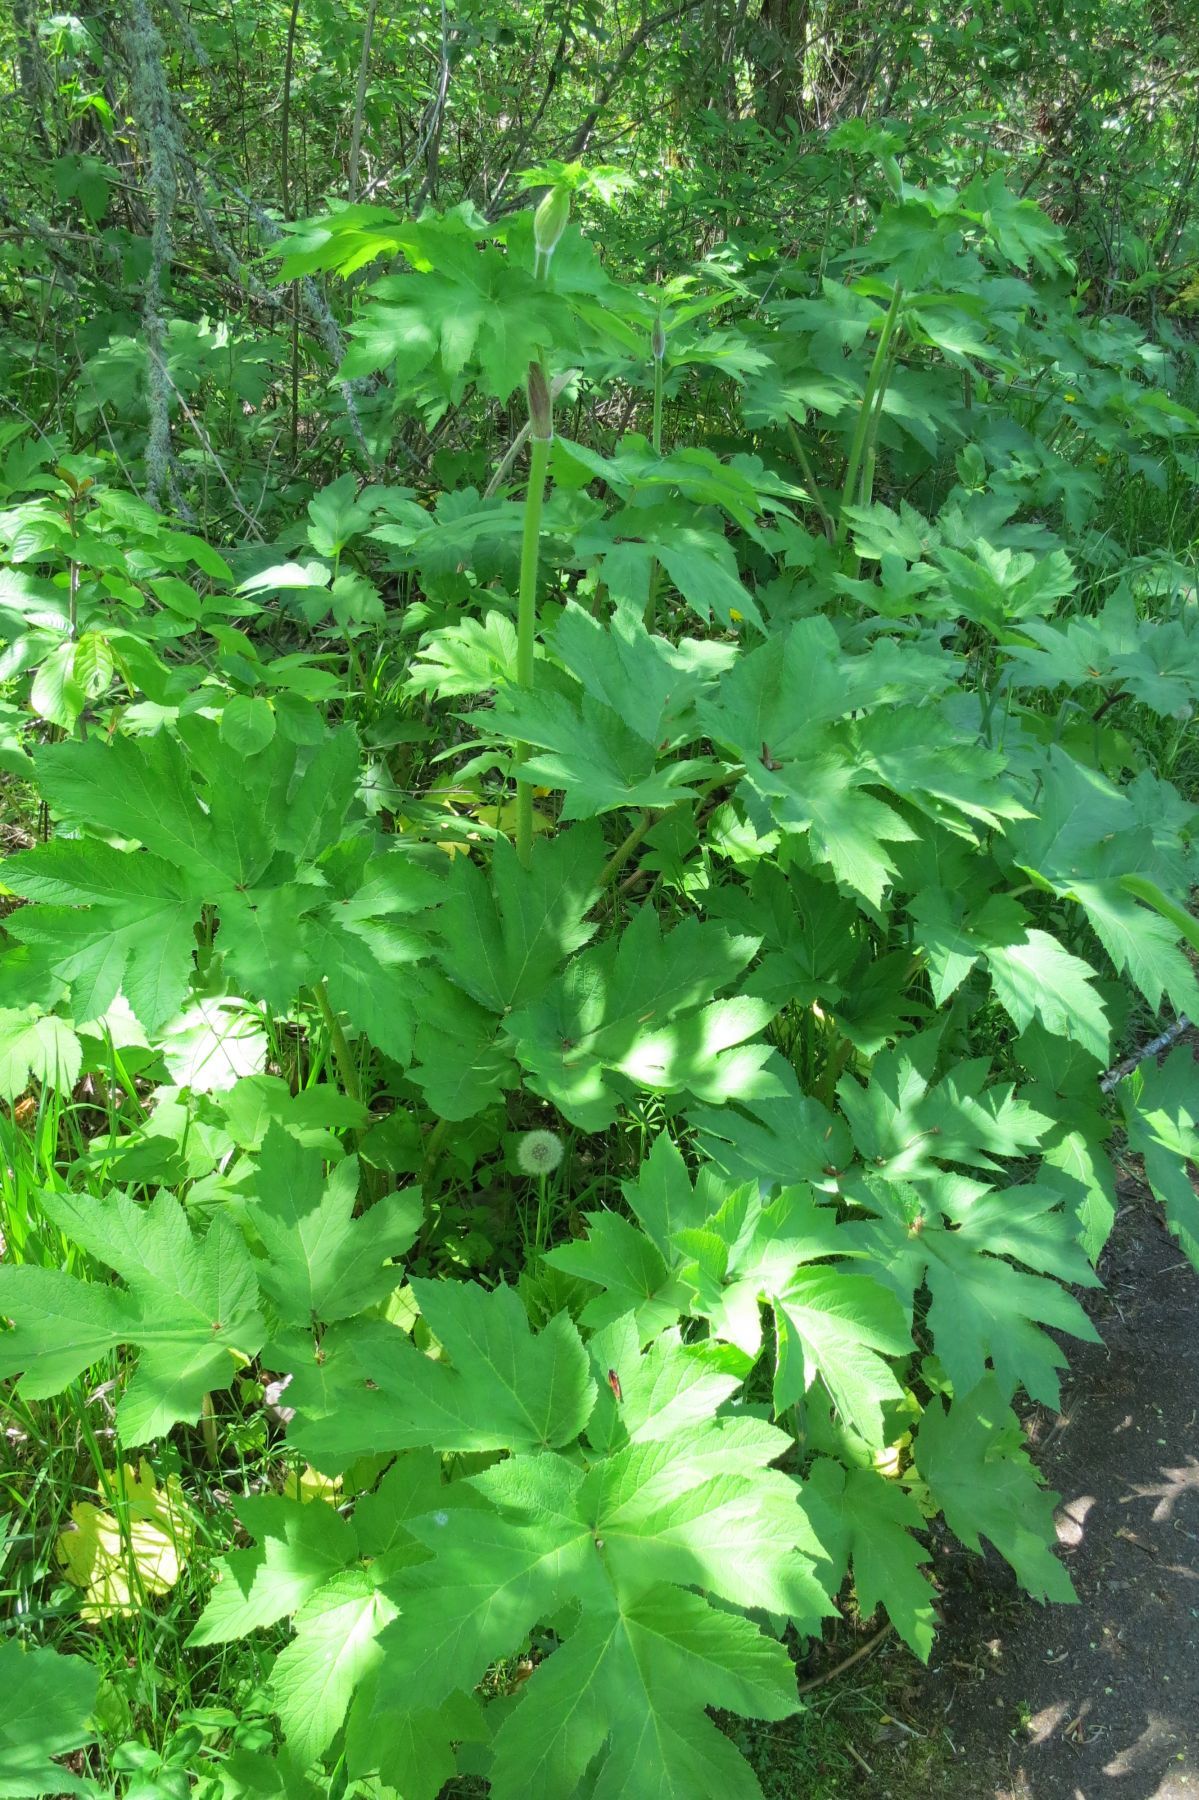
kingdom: Plantae
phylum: Tracheophyta
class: Magnoliopsida
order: Apiales
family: Apiaceae
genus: Heracleum
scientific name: Heracleum maximum
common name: American cow parsnip
